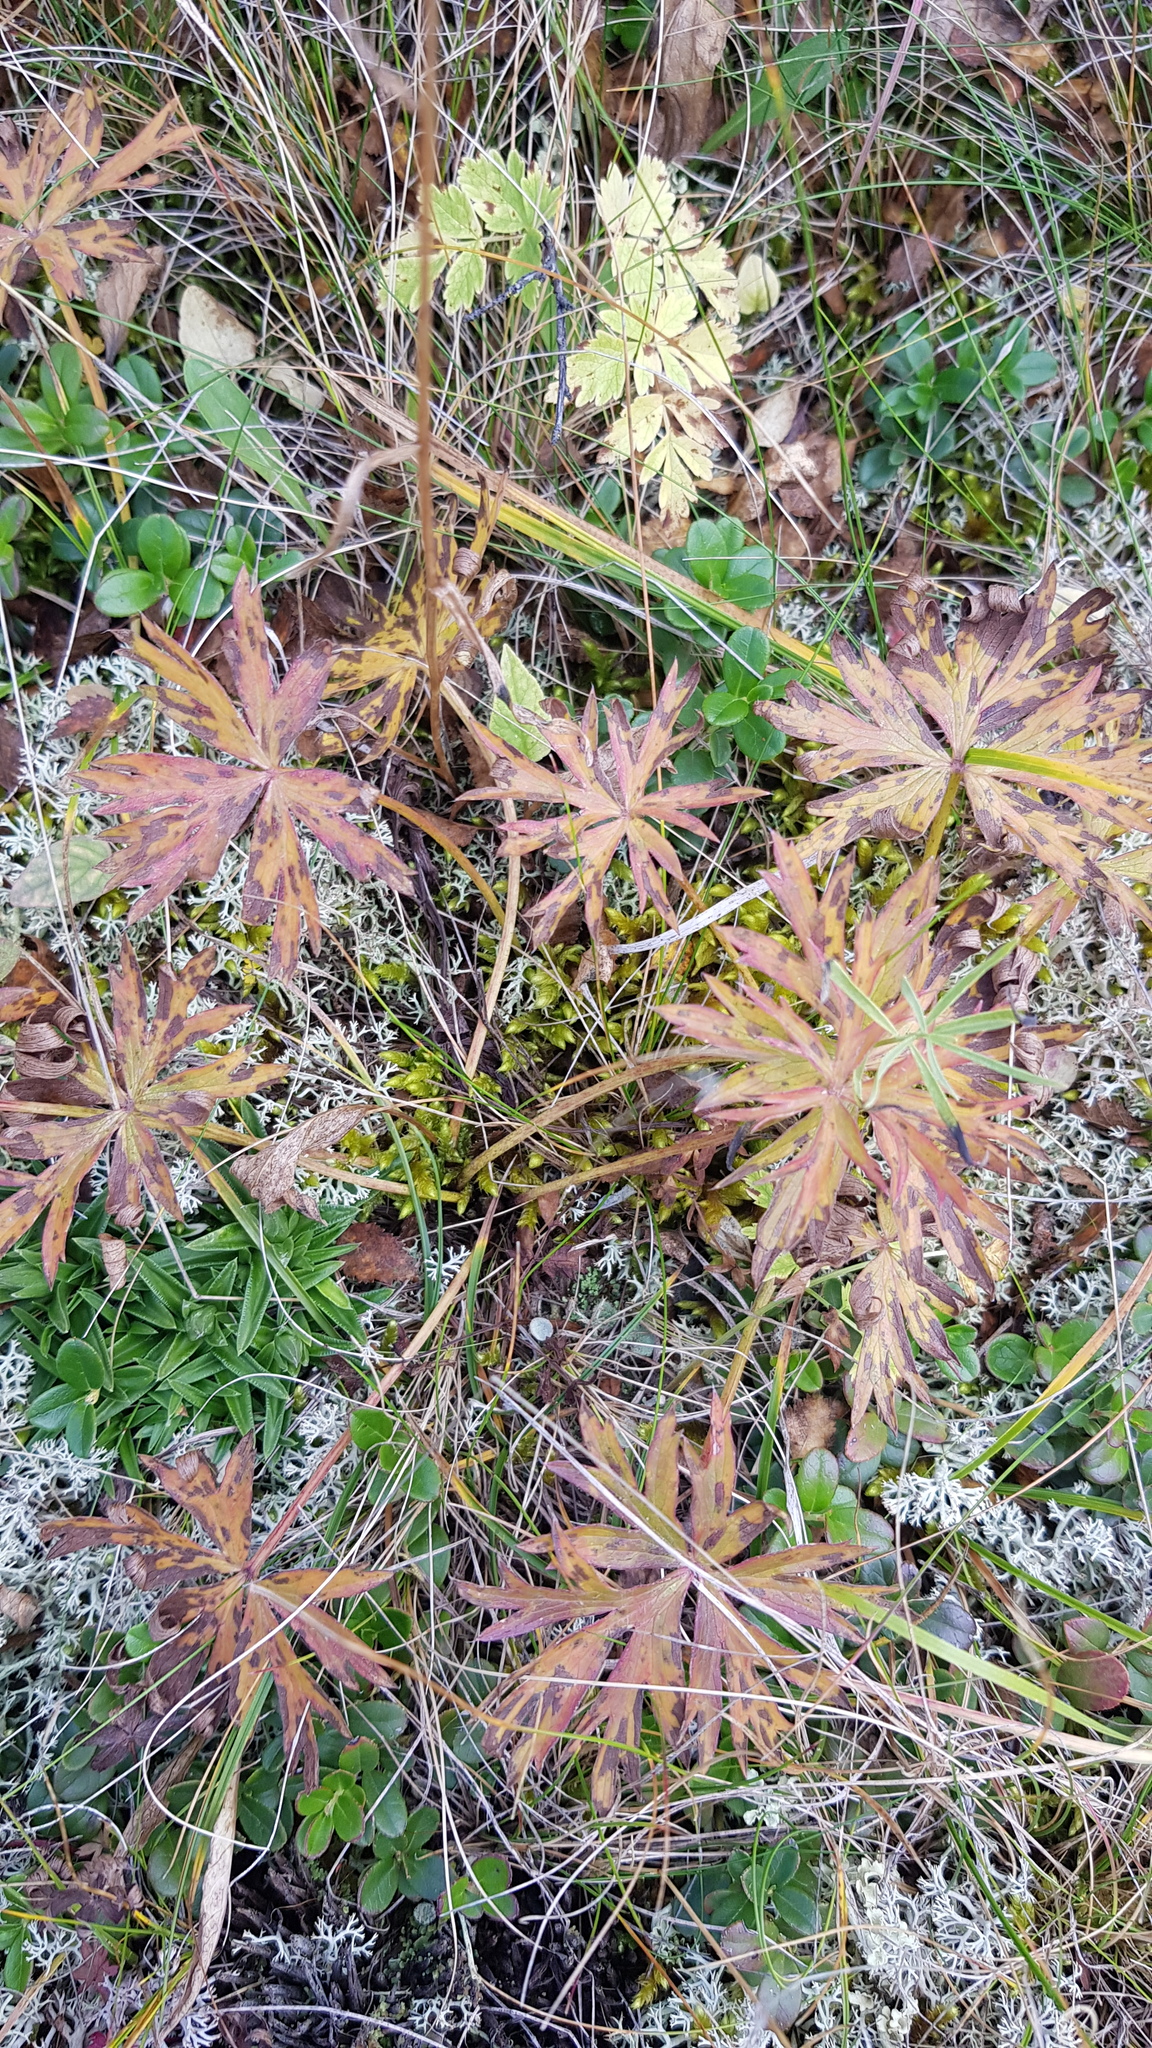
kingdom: Plantae
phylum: Tracheophyta
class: Magnoliopsida
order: Geraniales
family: Geraniaceae
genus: Geranium
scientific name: Geranium pseudosibiricum
